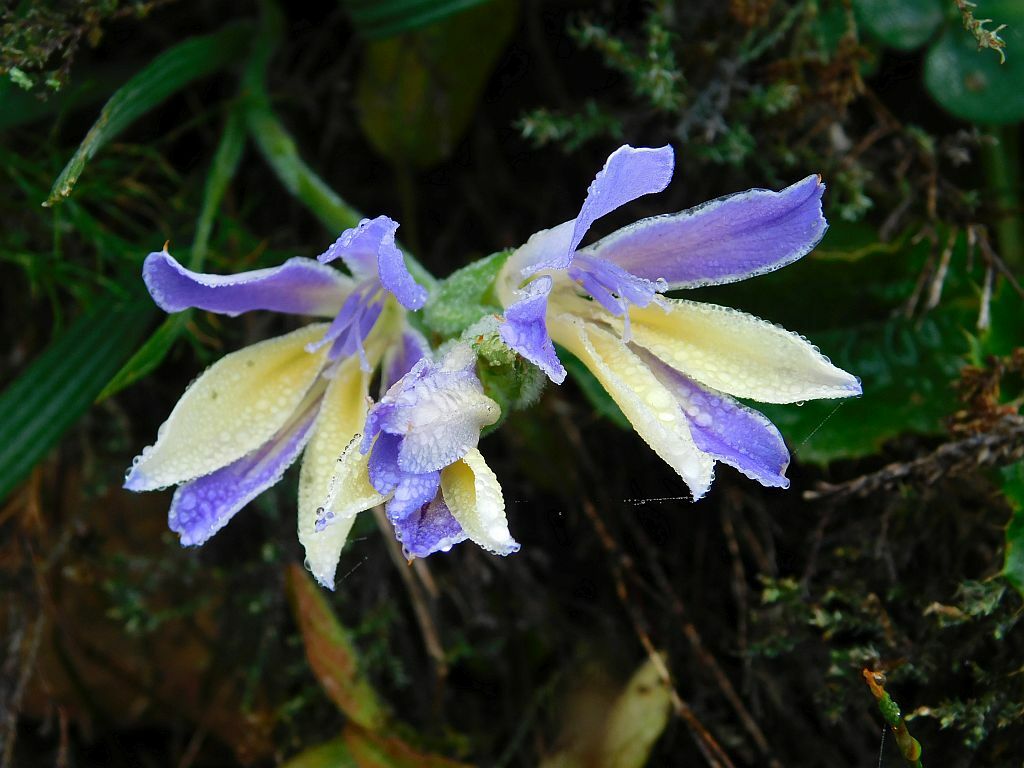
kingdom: Plantae
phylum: Tracheophyta
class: Liliopsida
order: Asparagales
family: Iridaceae
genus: Babiana
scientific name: Babiana patula
